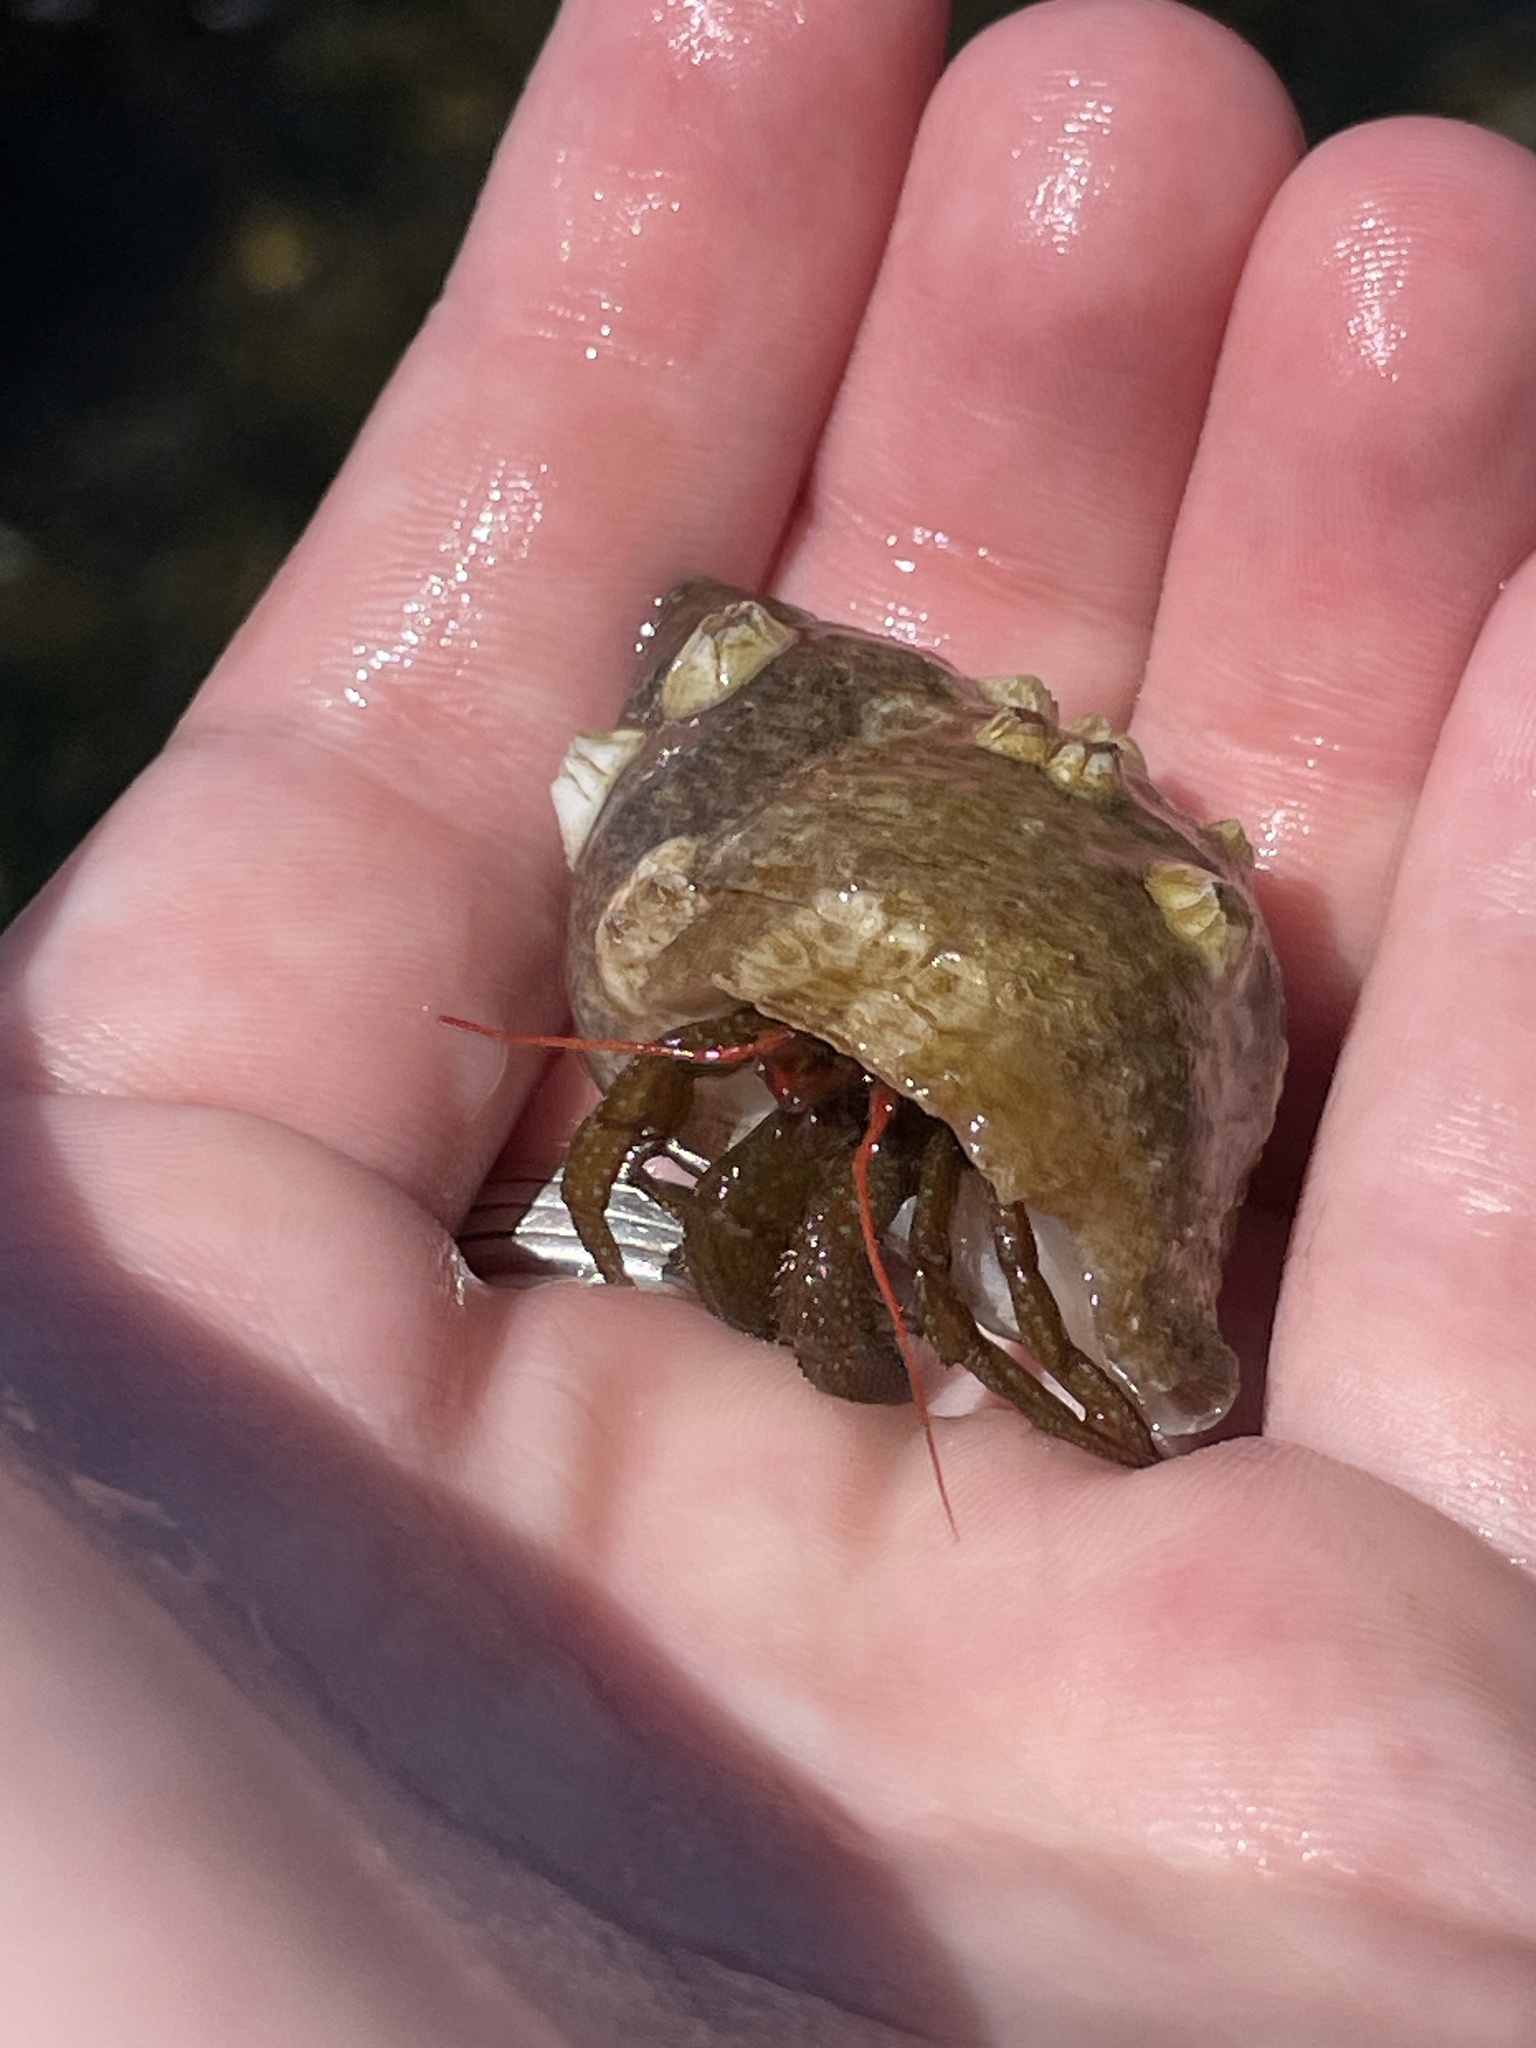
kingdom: Animalia
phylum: Arthropoda
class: Malacostraca
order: Decapoda
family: Paguridae
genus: Pagurus
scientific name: Pagurus granosimanus
